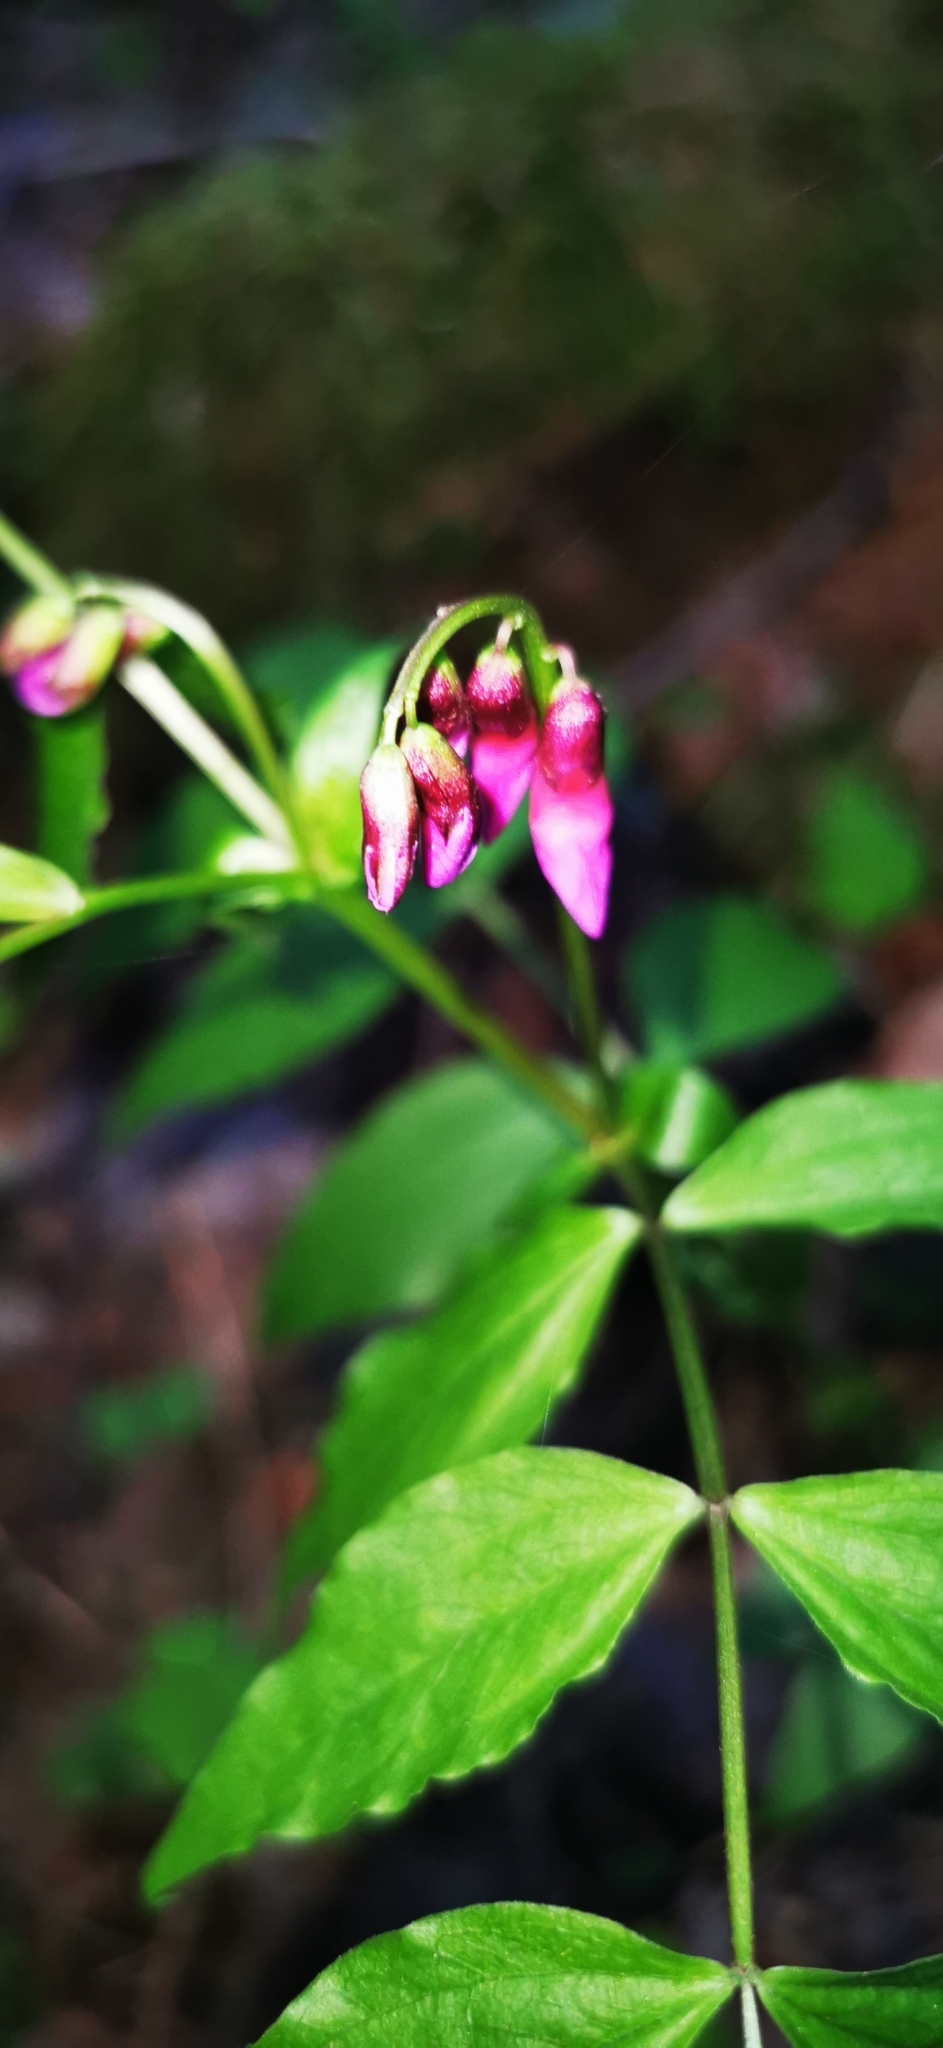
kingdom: Plantae
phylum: Tracheophyta
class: Magnoliopsida
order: Fabales
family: Fabaceae
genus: Lathyrus
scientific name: Lathyrus vernus
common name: Spring pea
